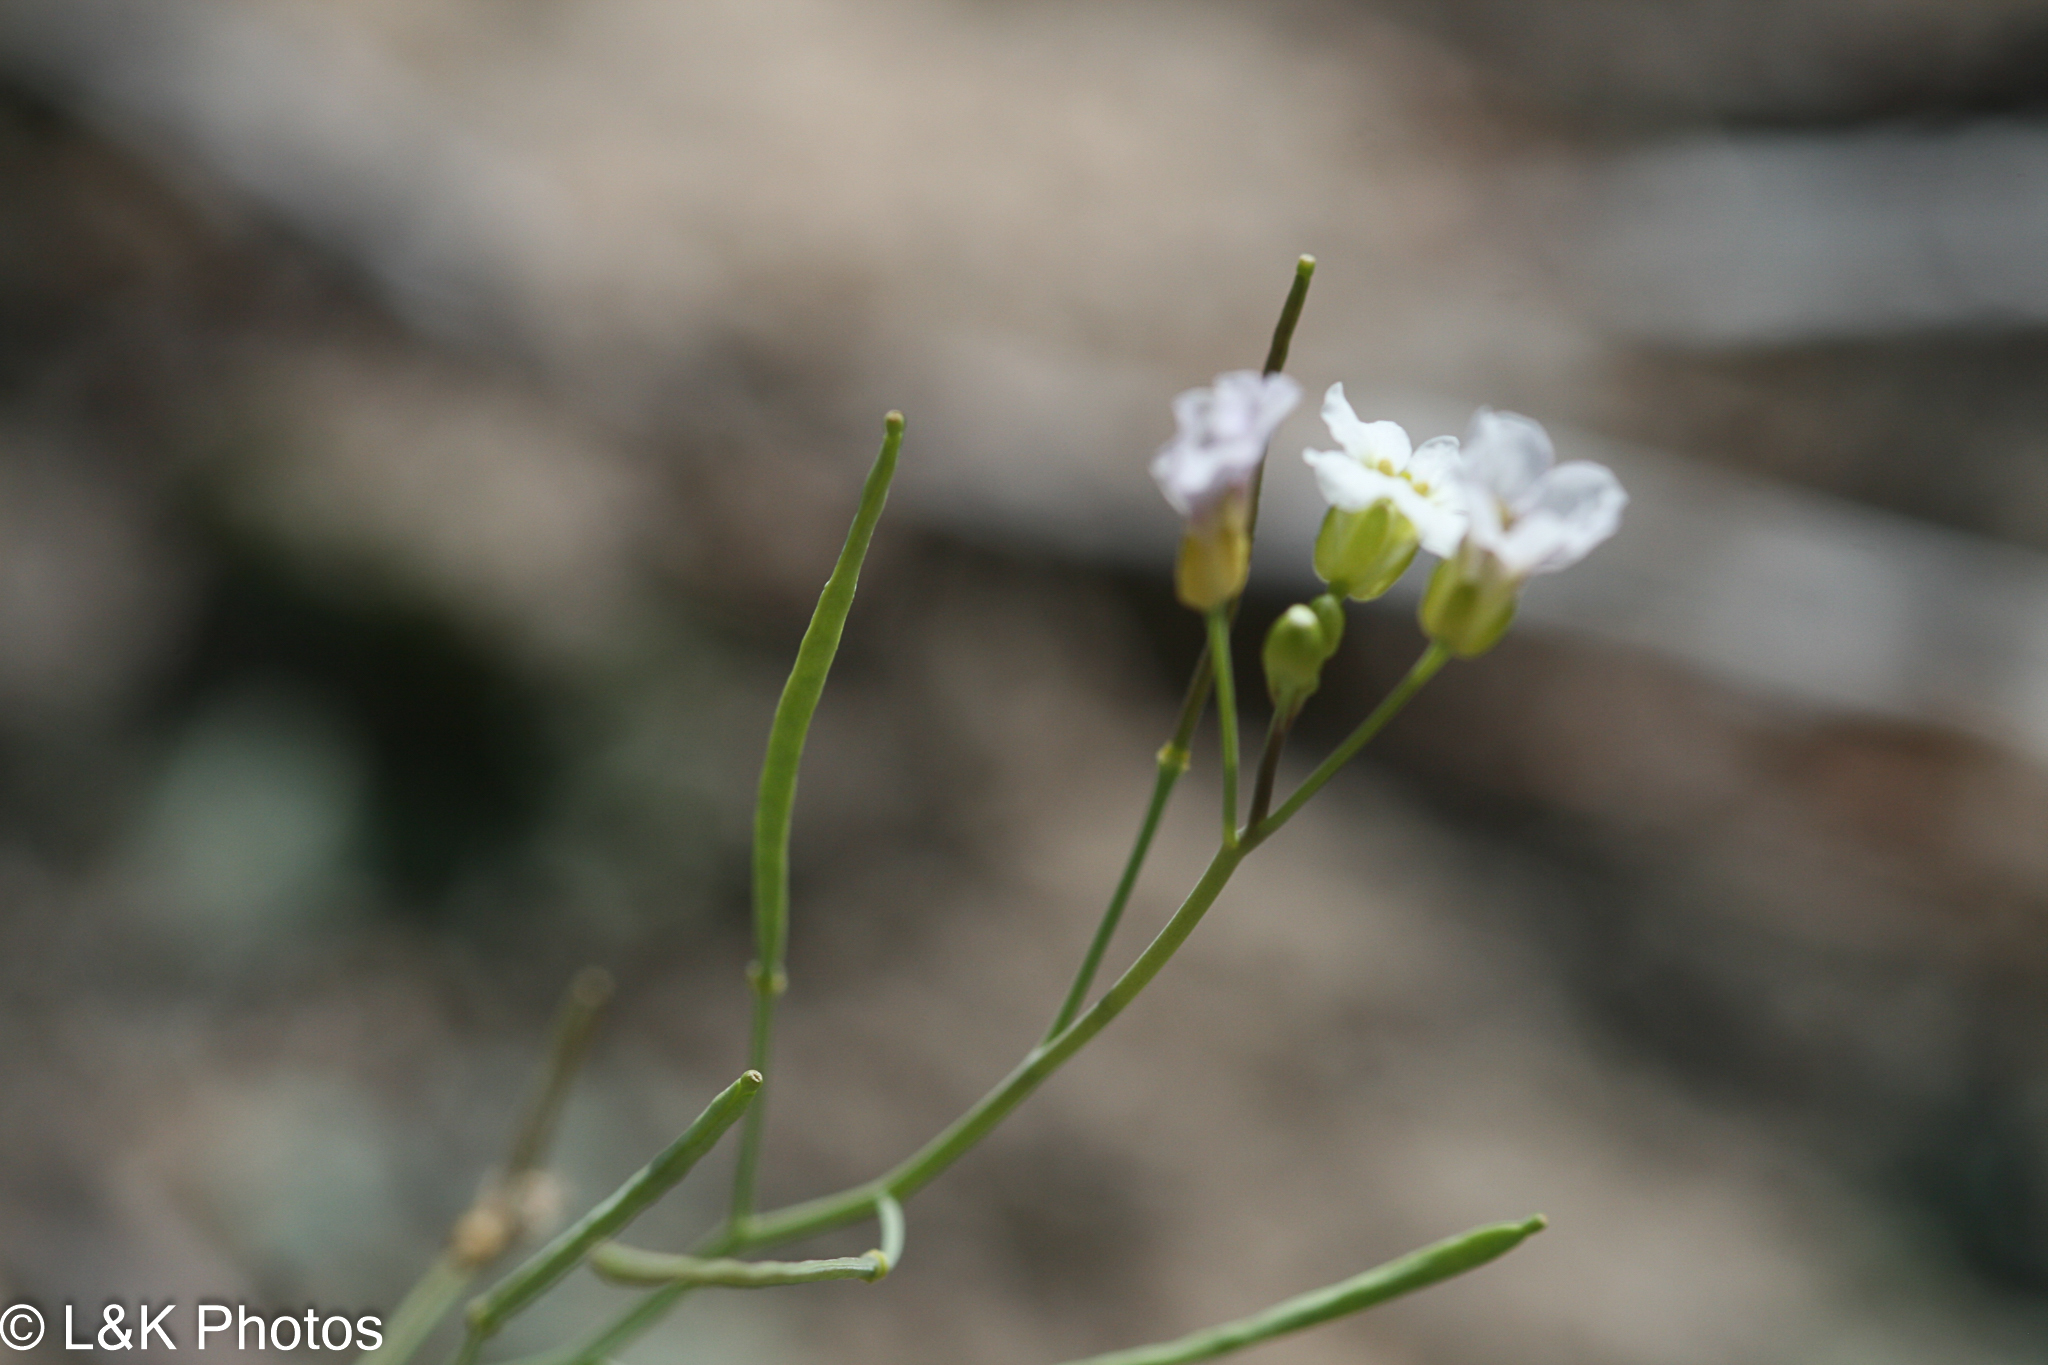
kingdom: Plantae
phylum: Tracheophyta
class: Magnoliopsida
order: Brassicales
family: Brassicaceae
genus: Arabidopsis
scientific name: Arabidopsis lyrata
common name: Lyrate rockcress
